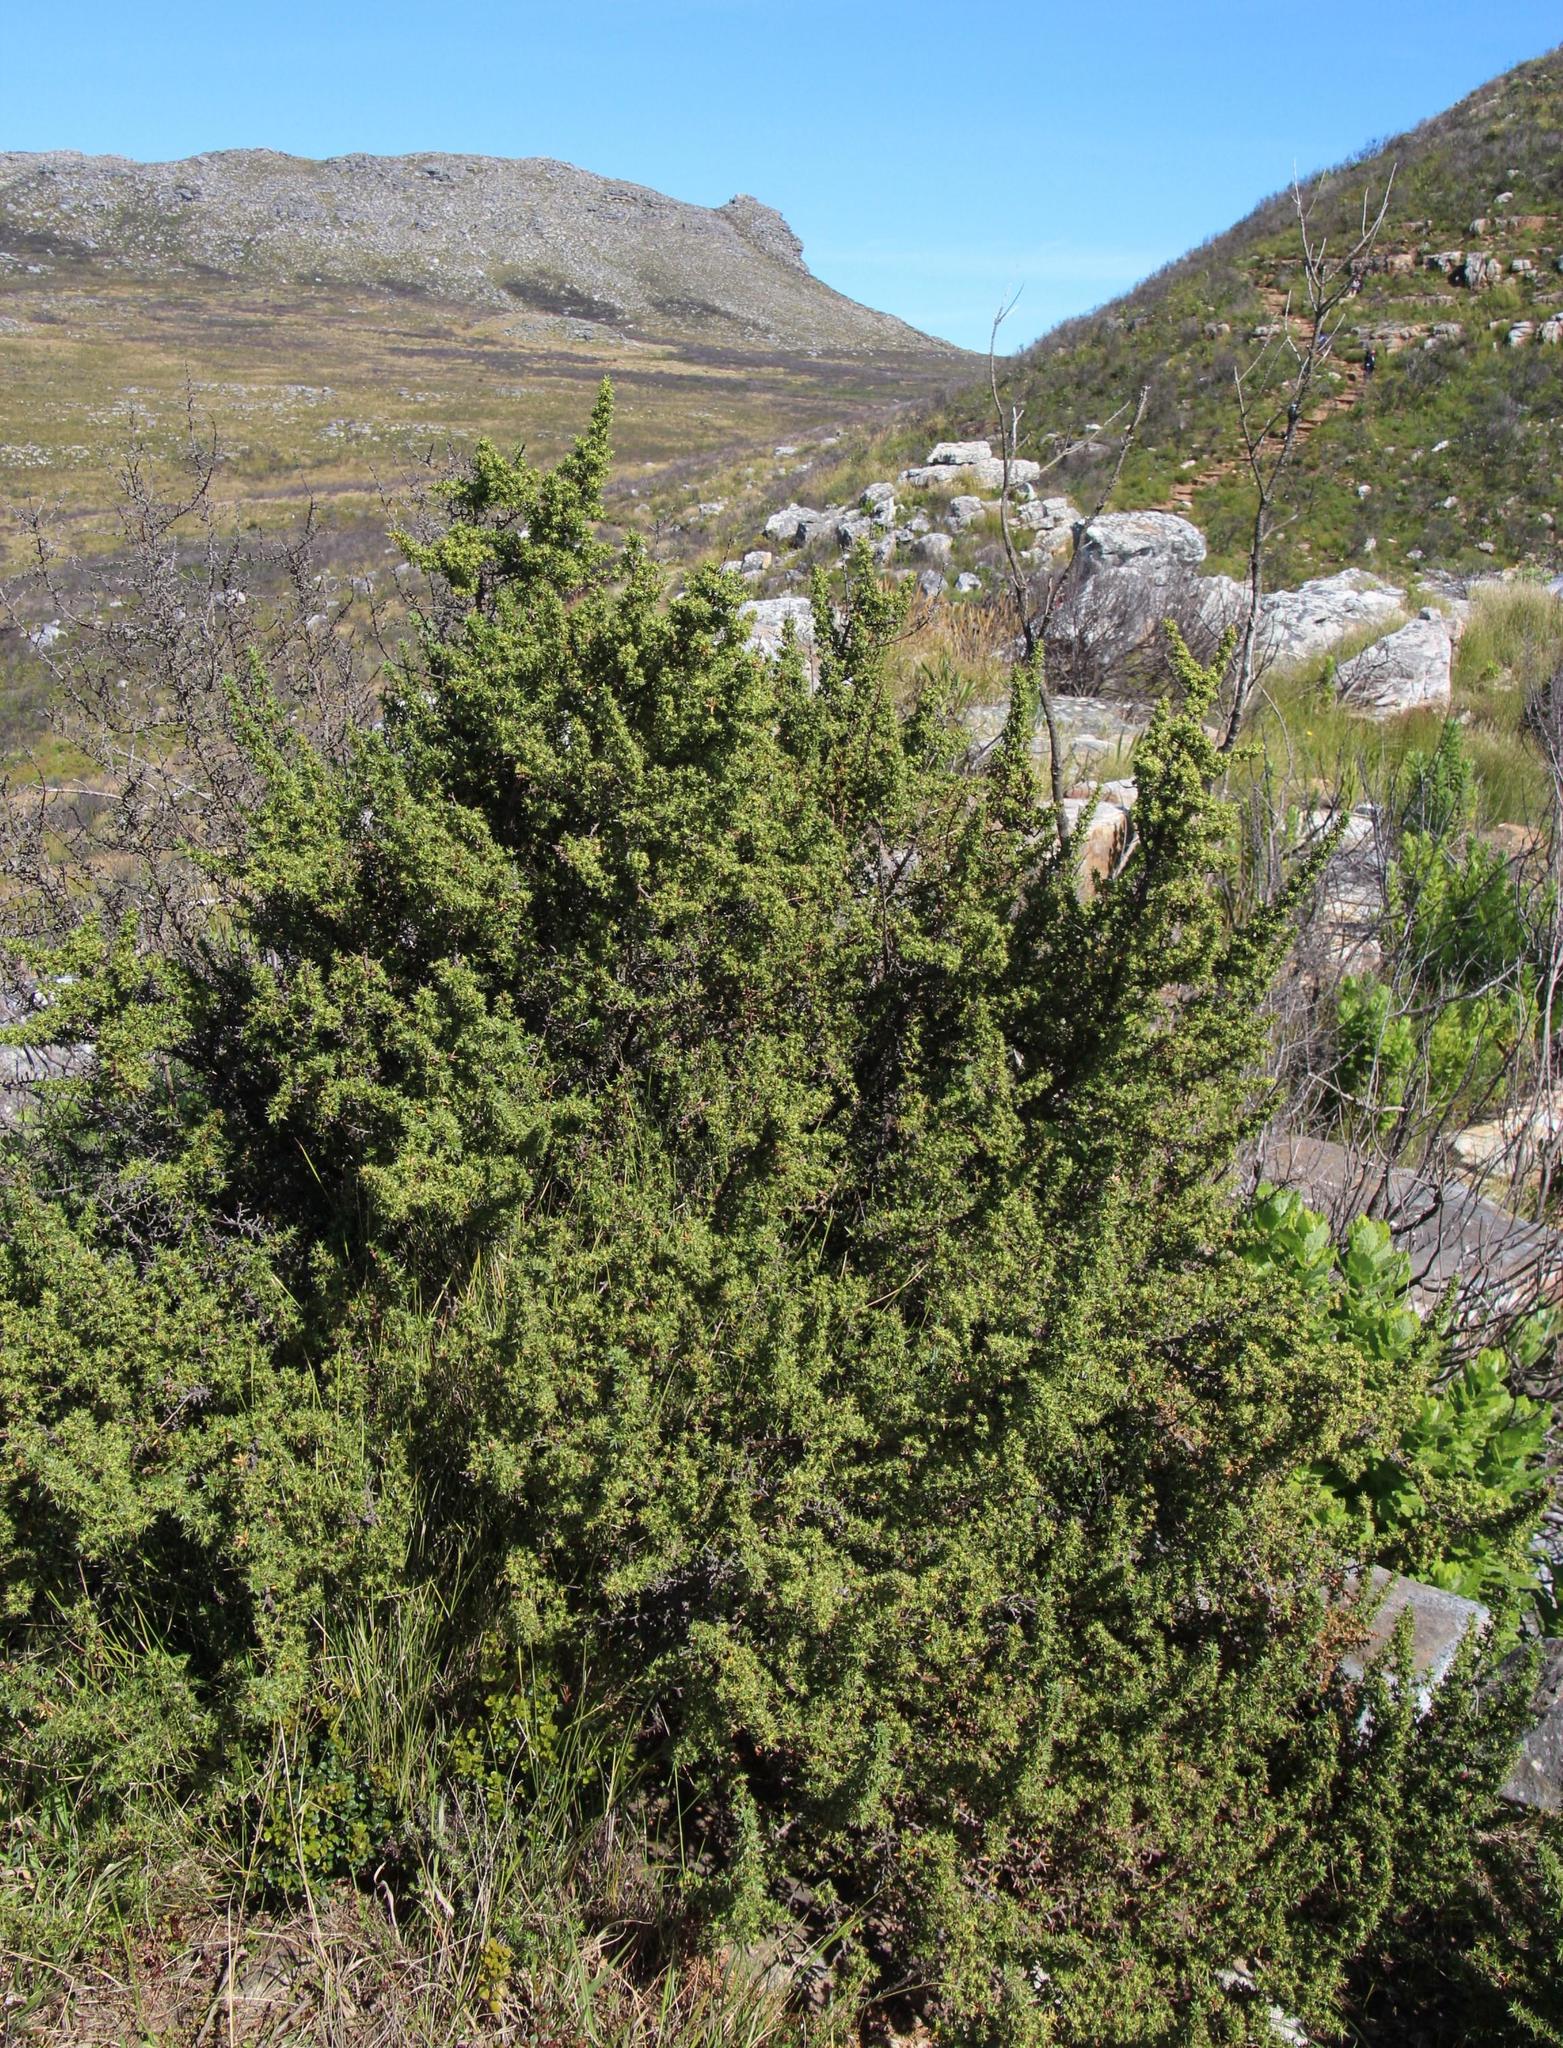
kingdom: Plantae
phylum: Tracheophyta
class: Magnoliopsida
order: Rosales
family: Rosaceae
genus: Cliffortia
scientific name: Cliffortia ruscifolia
